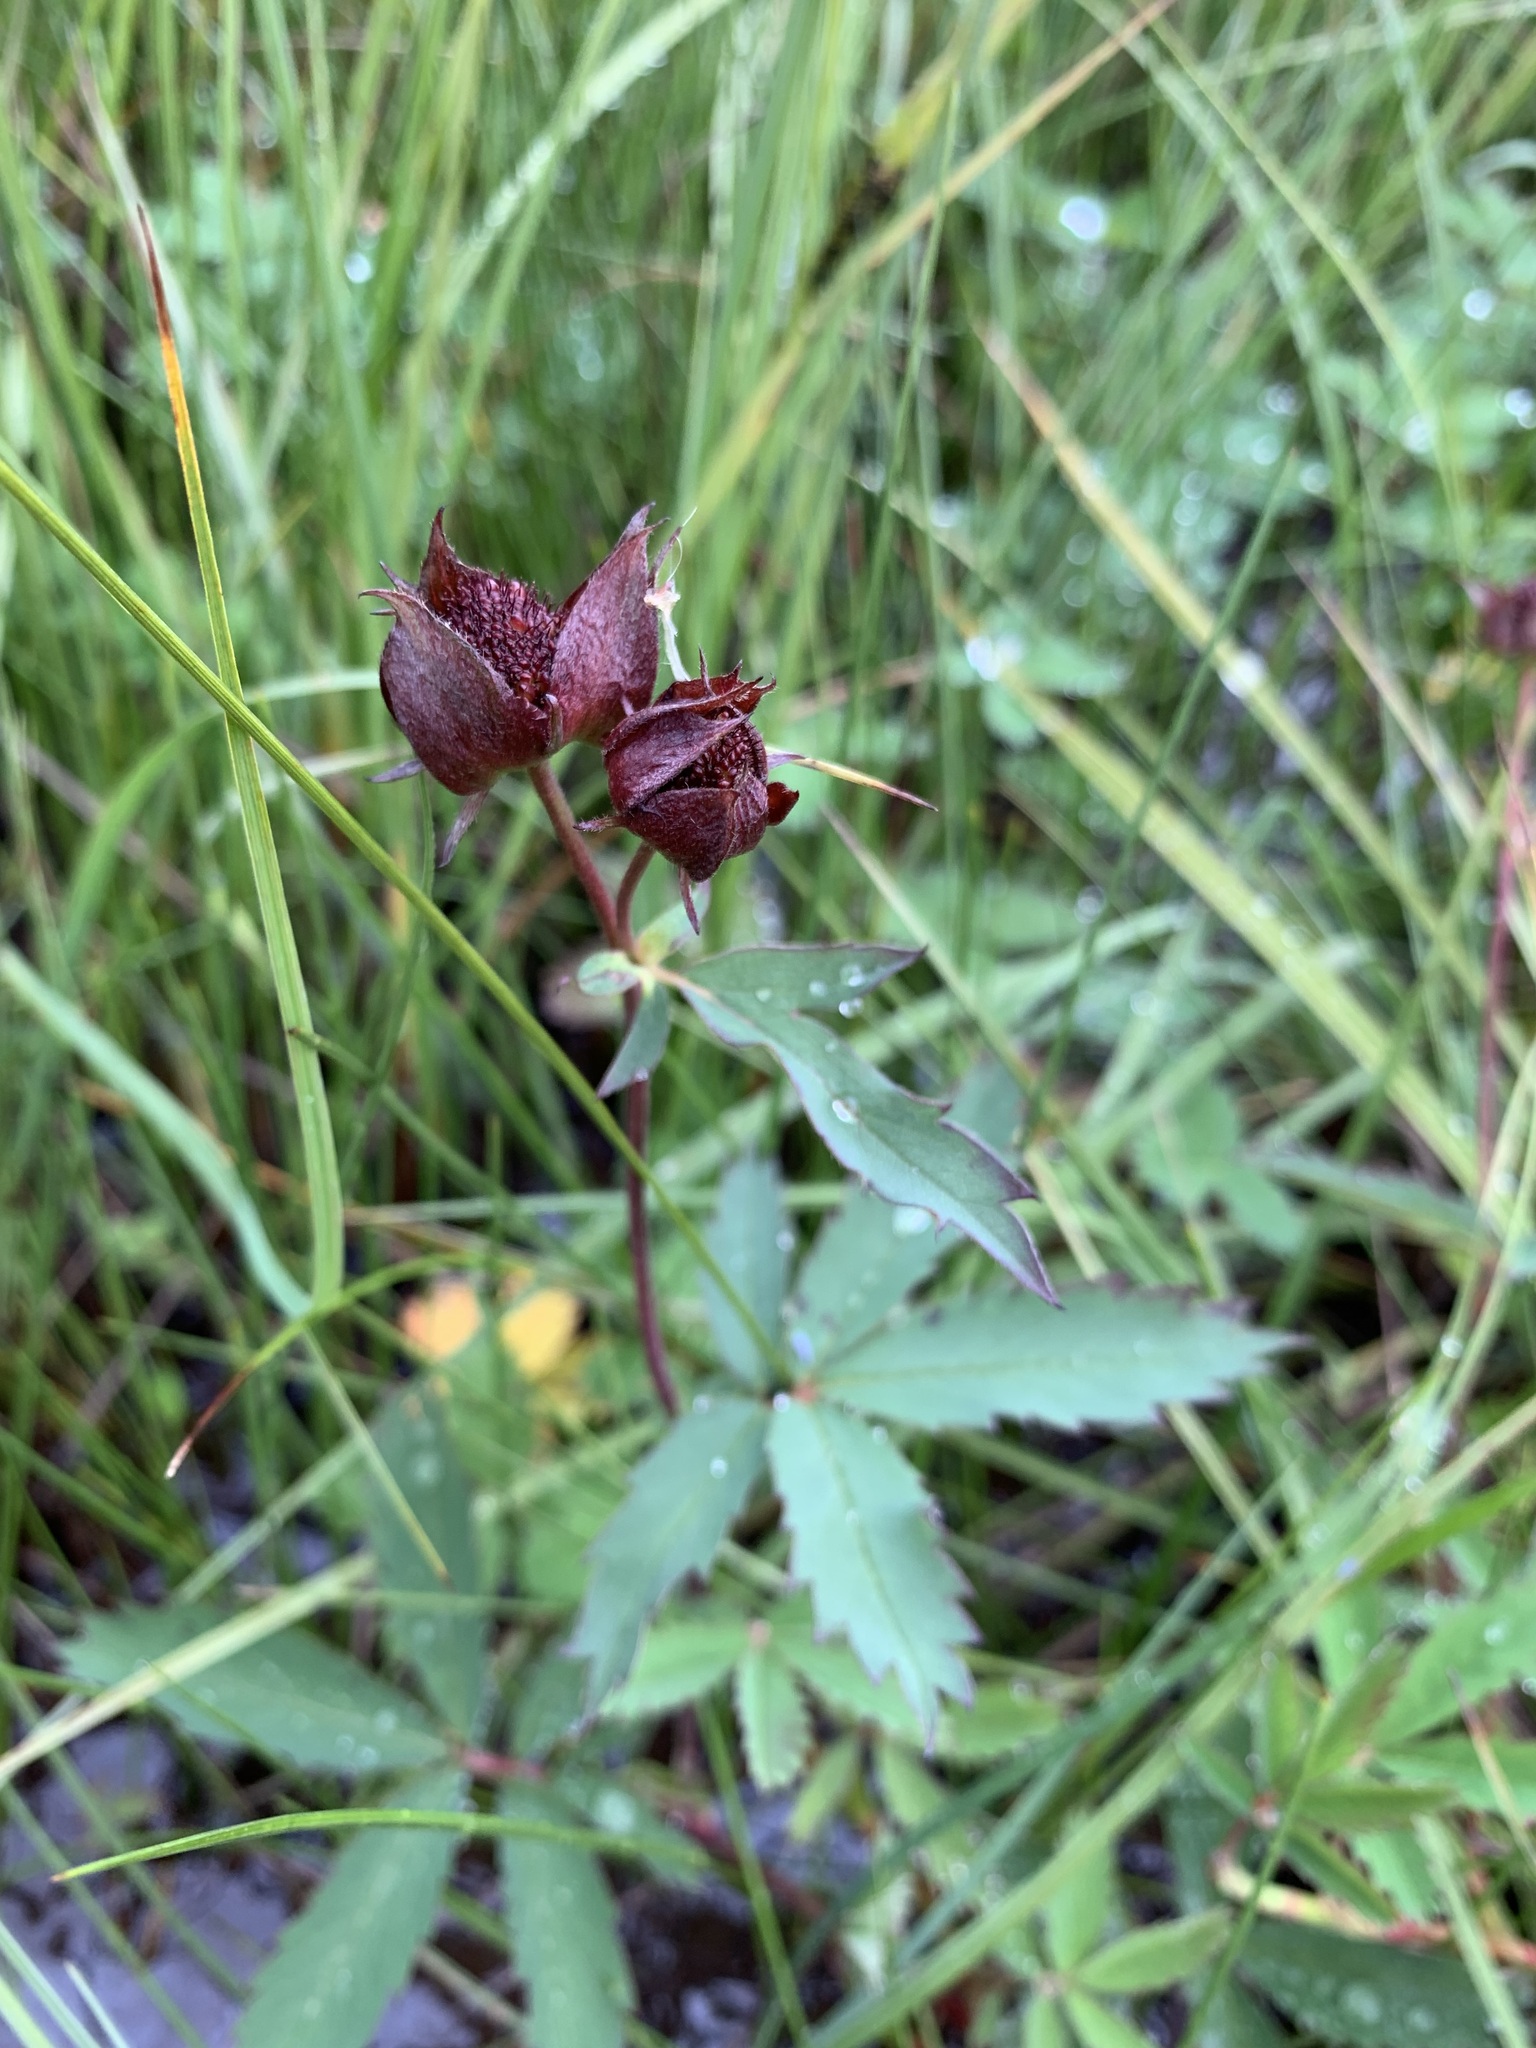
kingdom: Plantae
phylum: Tracheophyta
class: Magnoliopsida
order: Rosales
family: Rosaceae
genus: Comarum
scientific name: Comarum palustre
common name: Marsh cinquefoil
